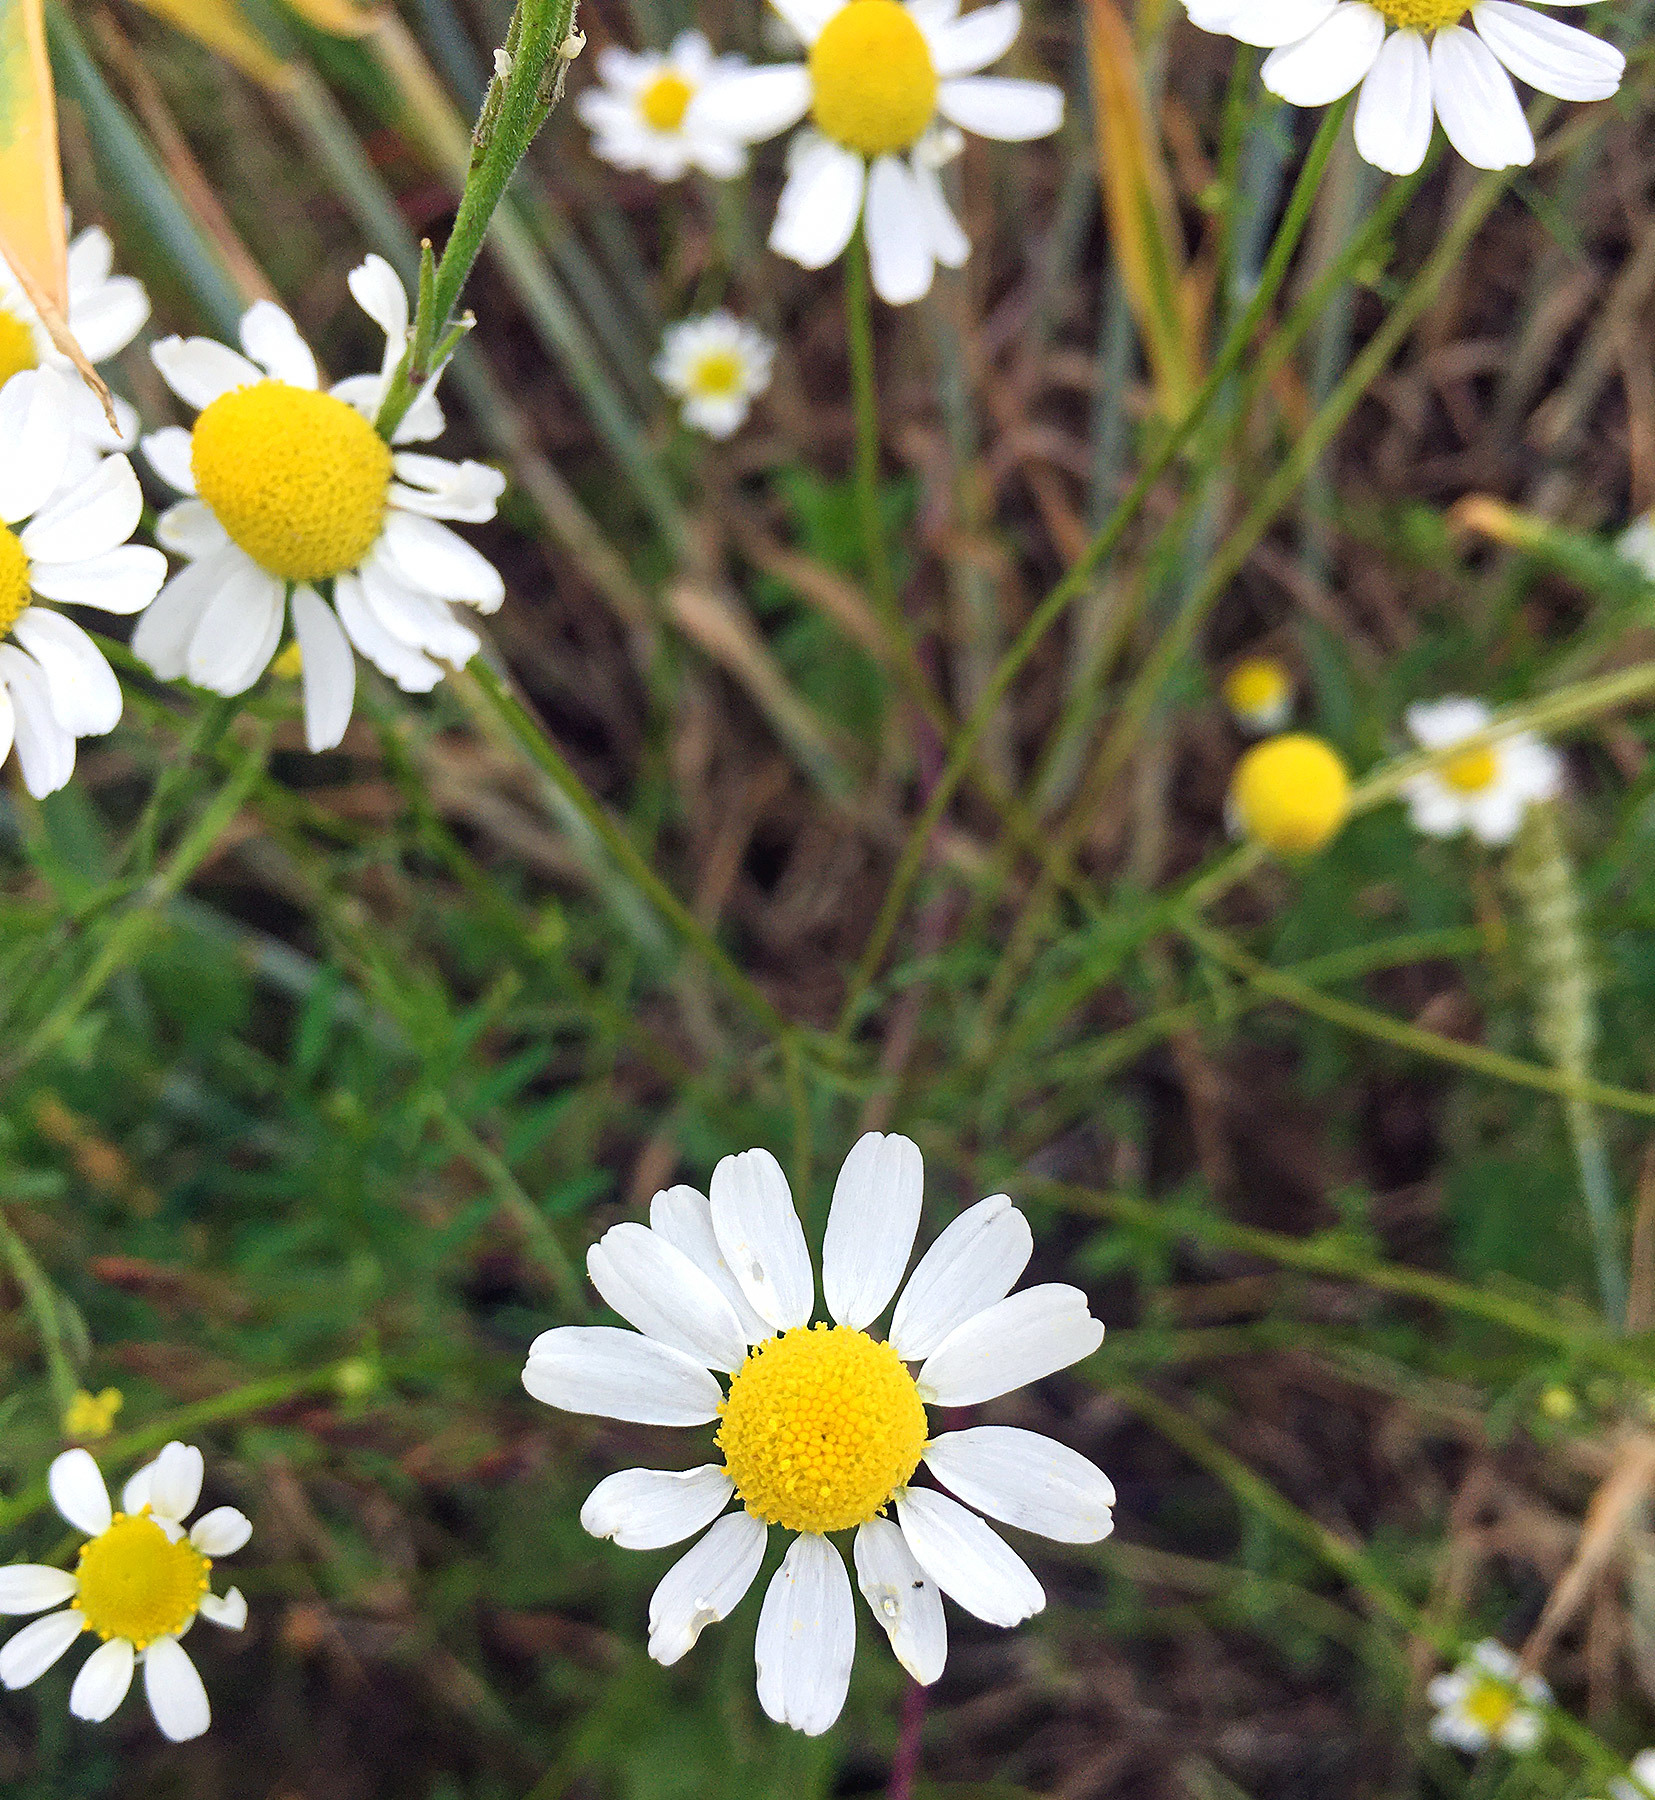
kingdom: Plantae
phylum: Tracheophyta
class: Magnoliopsida
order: Asterales
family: Asteraceae
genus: Matricaria
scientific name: Matricaria chamomilla
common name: Scented mayweed
